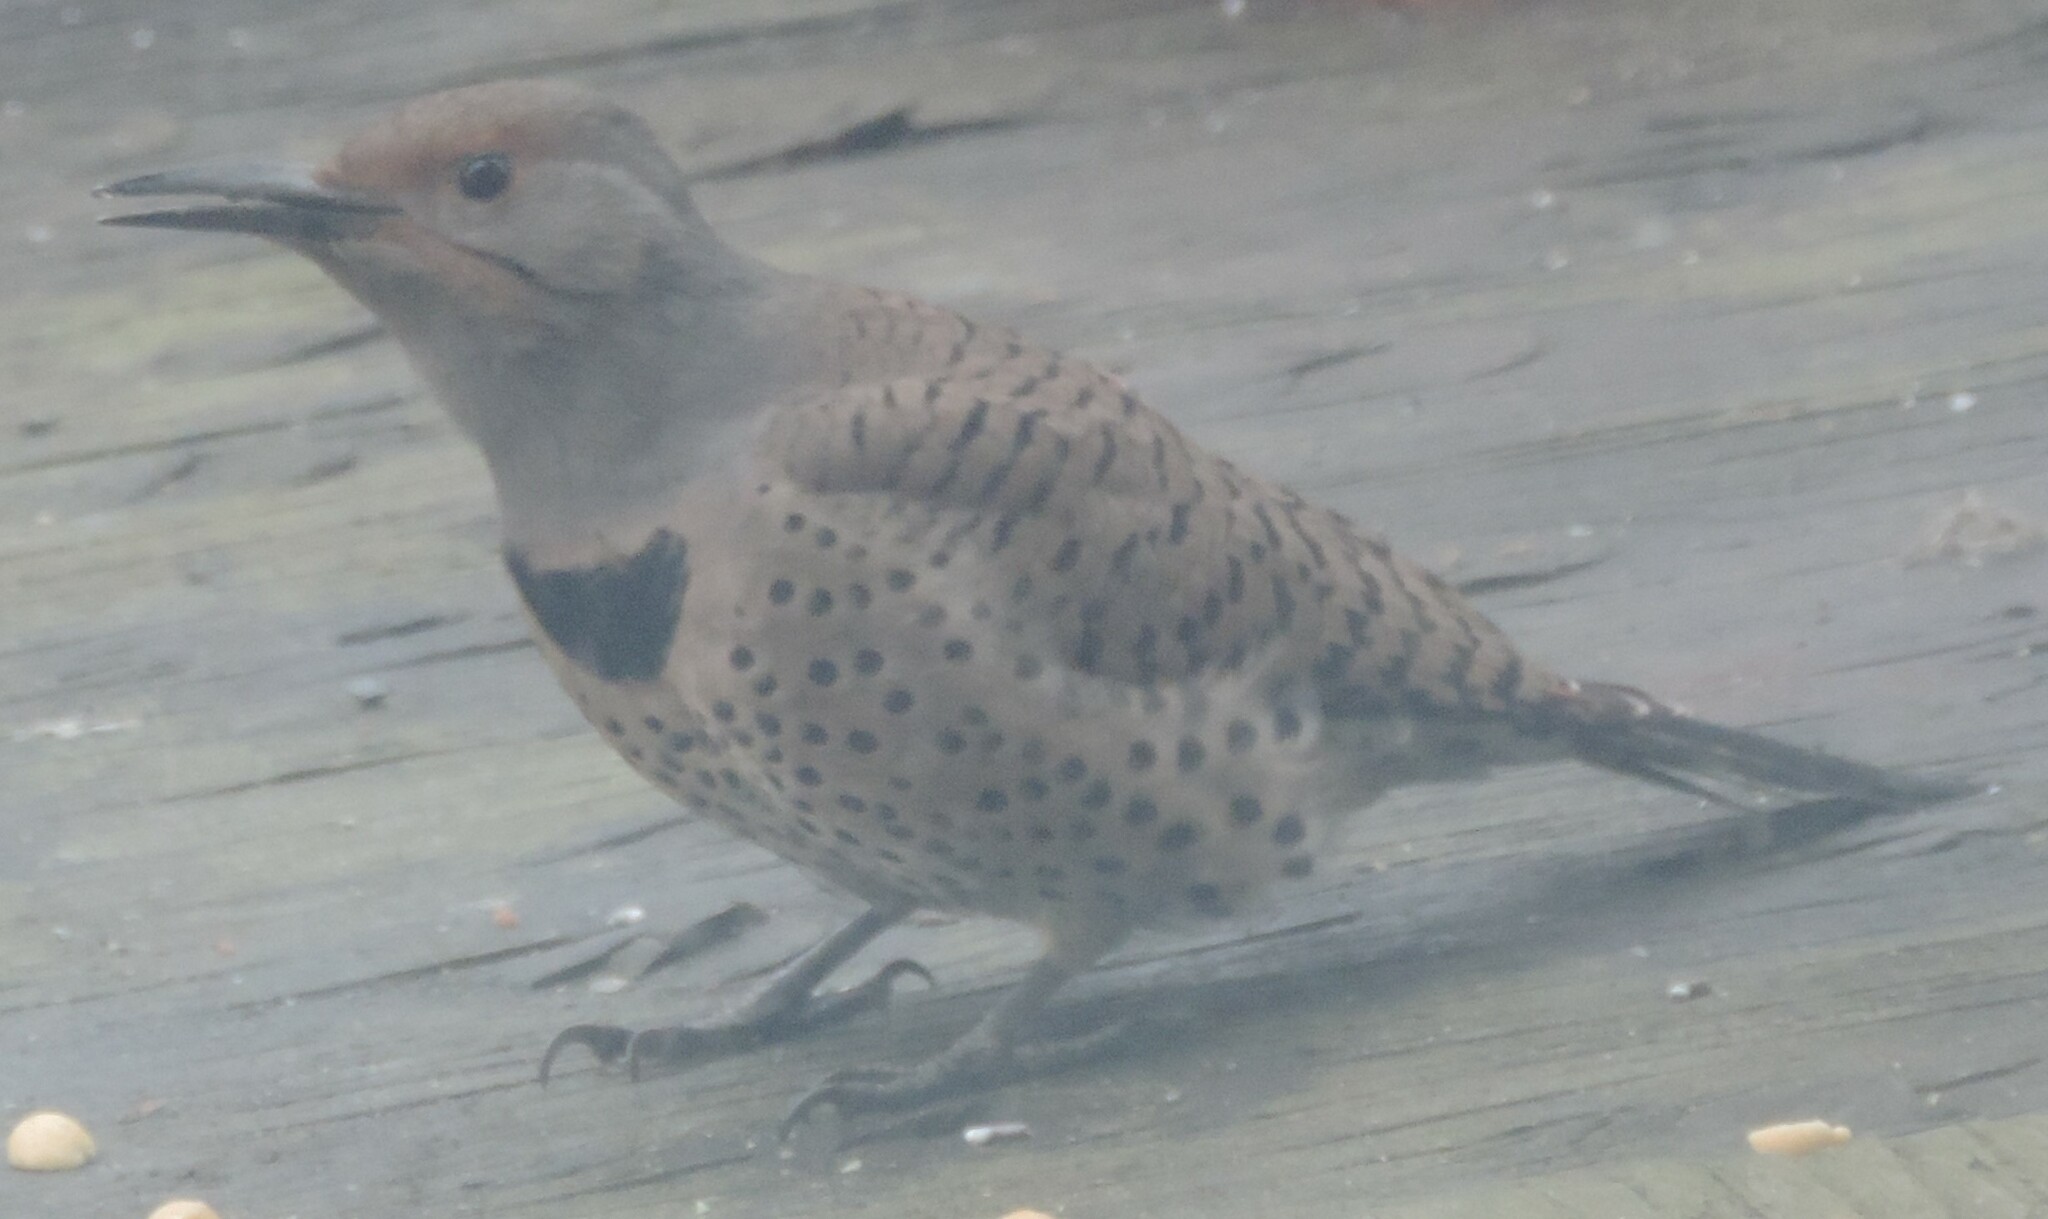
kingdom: Animalia
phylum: Chordata
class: Aves
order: Piciformes
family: Picidae
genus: Colaptes
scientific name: Colaptes auratus
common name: Northern flicker
